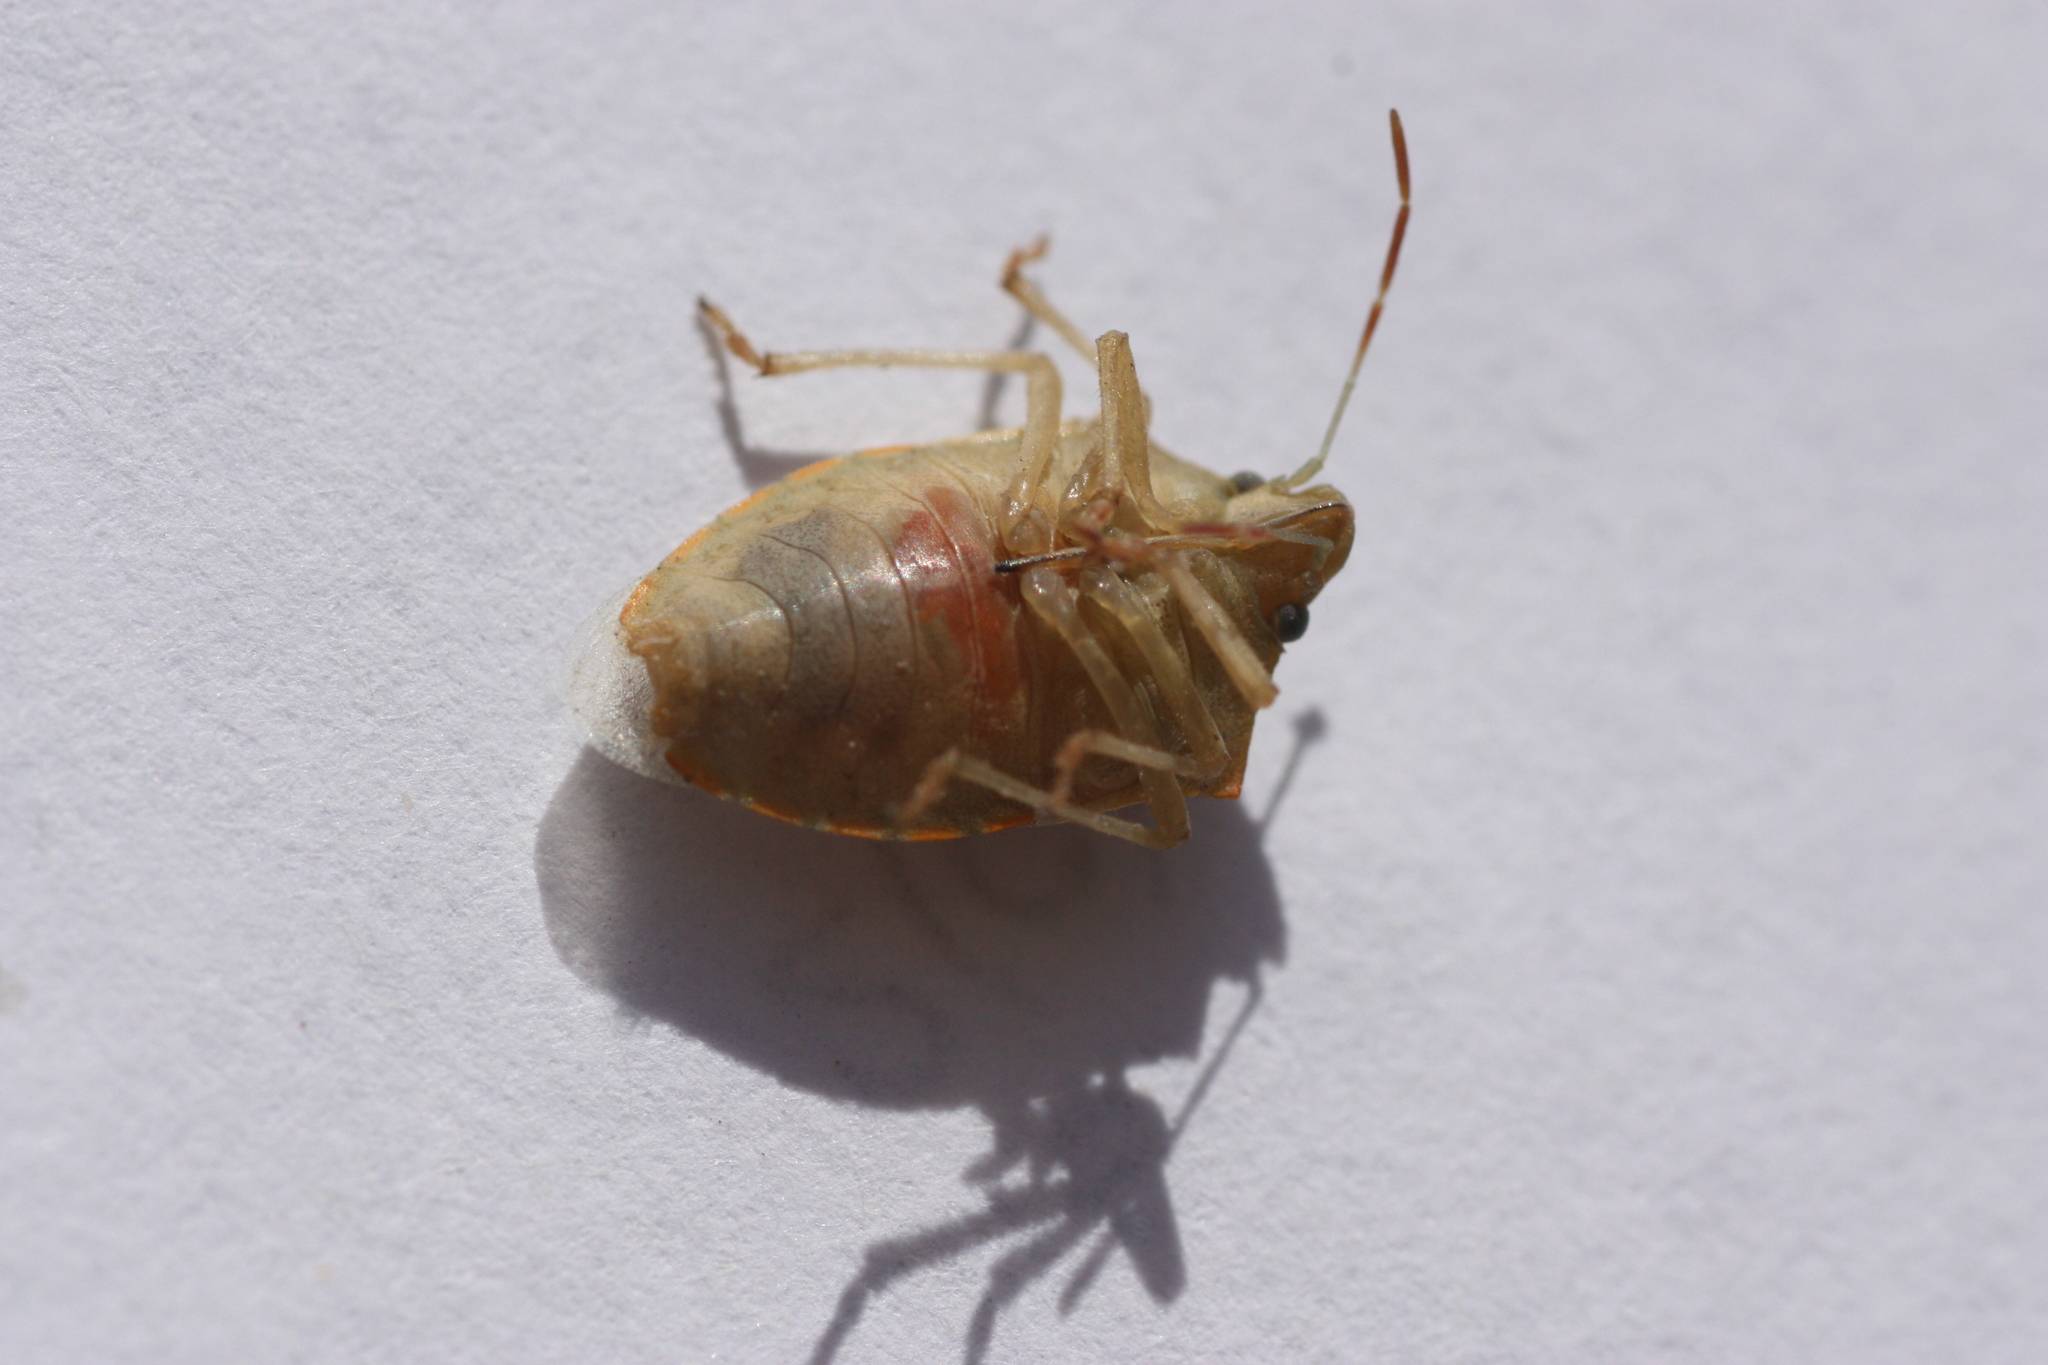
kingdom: Animalia
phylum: Arthropoda
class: Insecta
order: Hemiptera
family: Pentatomidae
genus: Thyanta
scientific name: Thyanta accerra
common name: Stink bug
